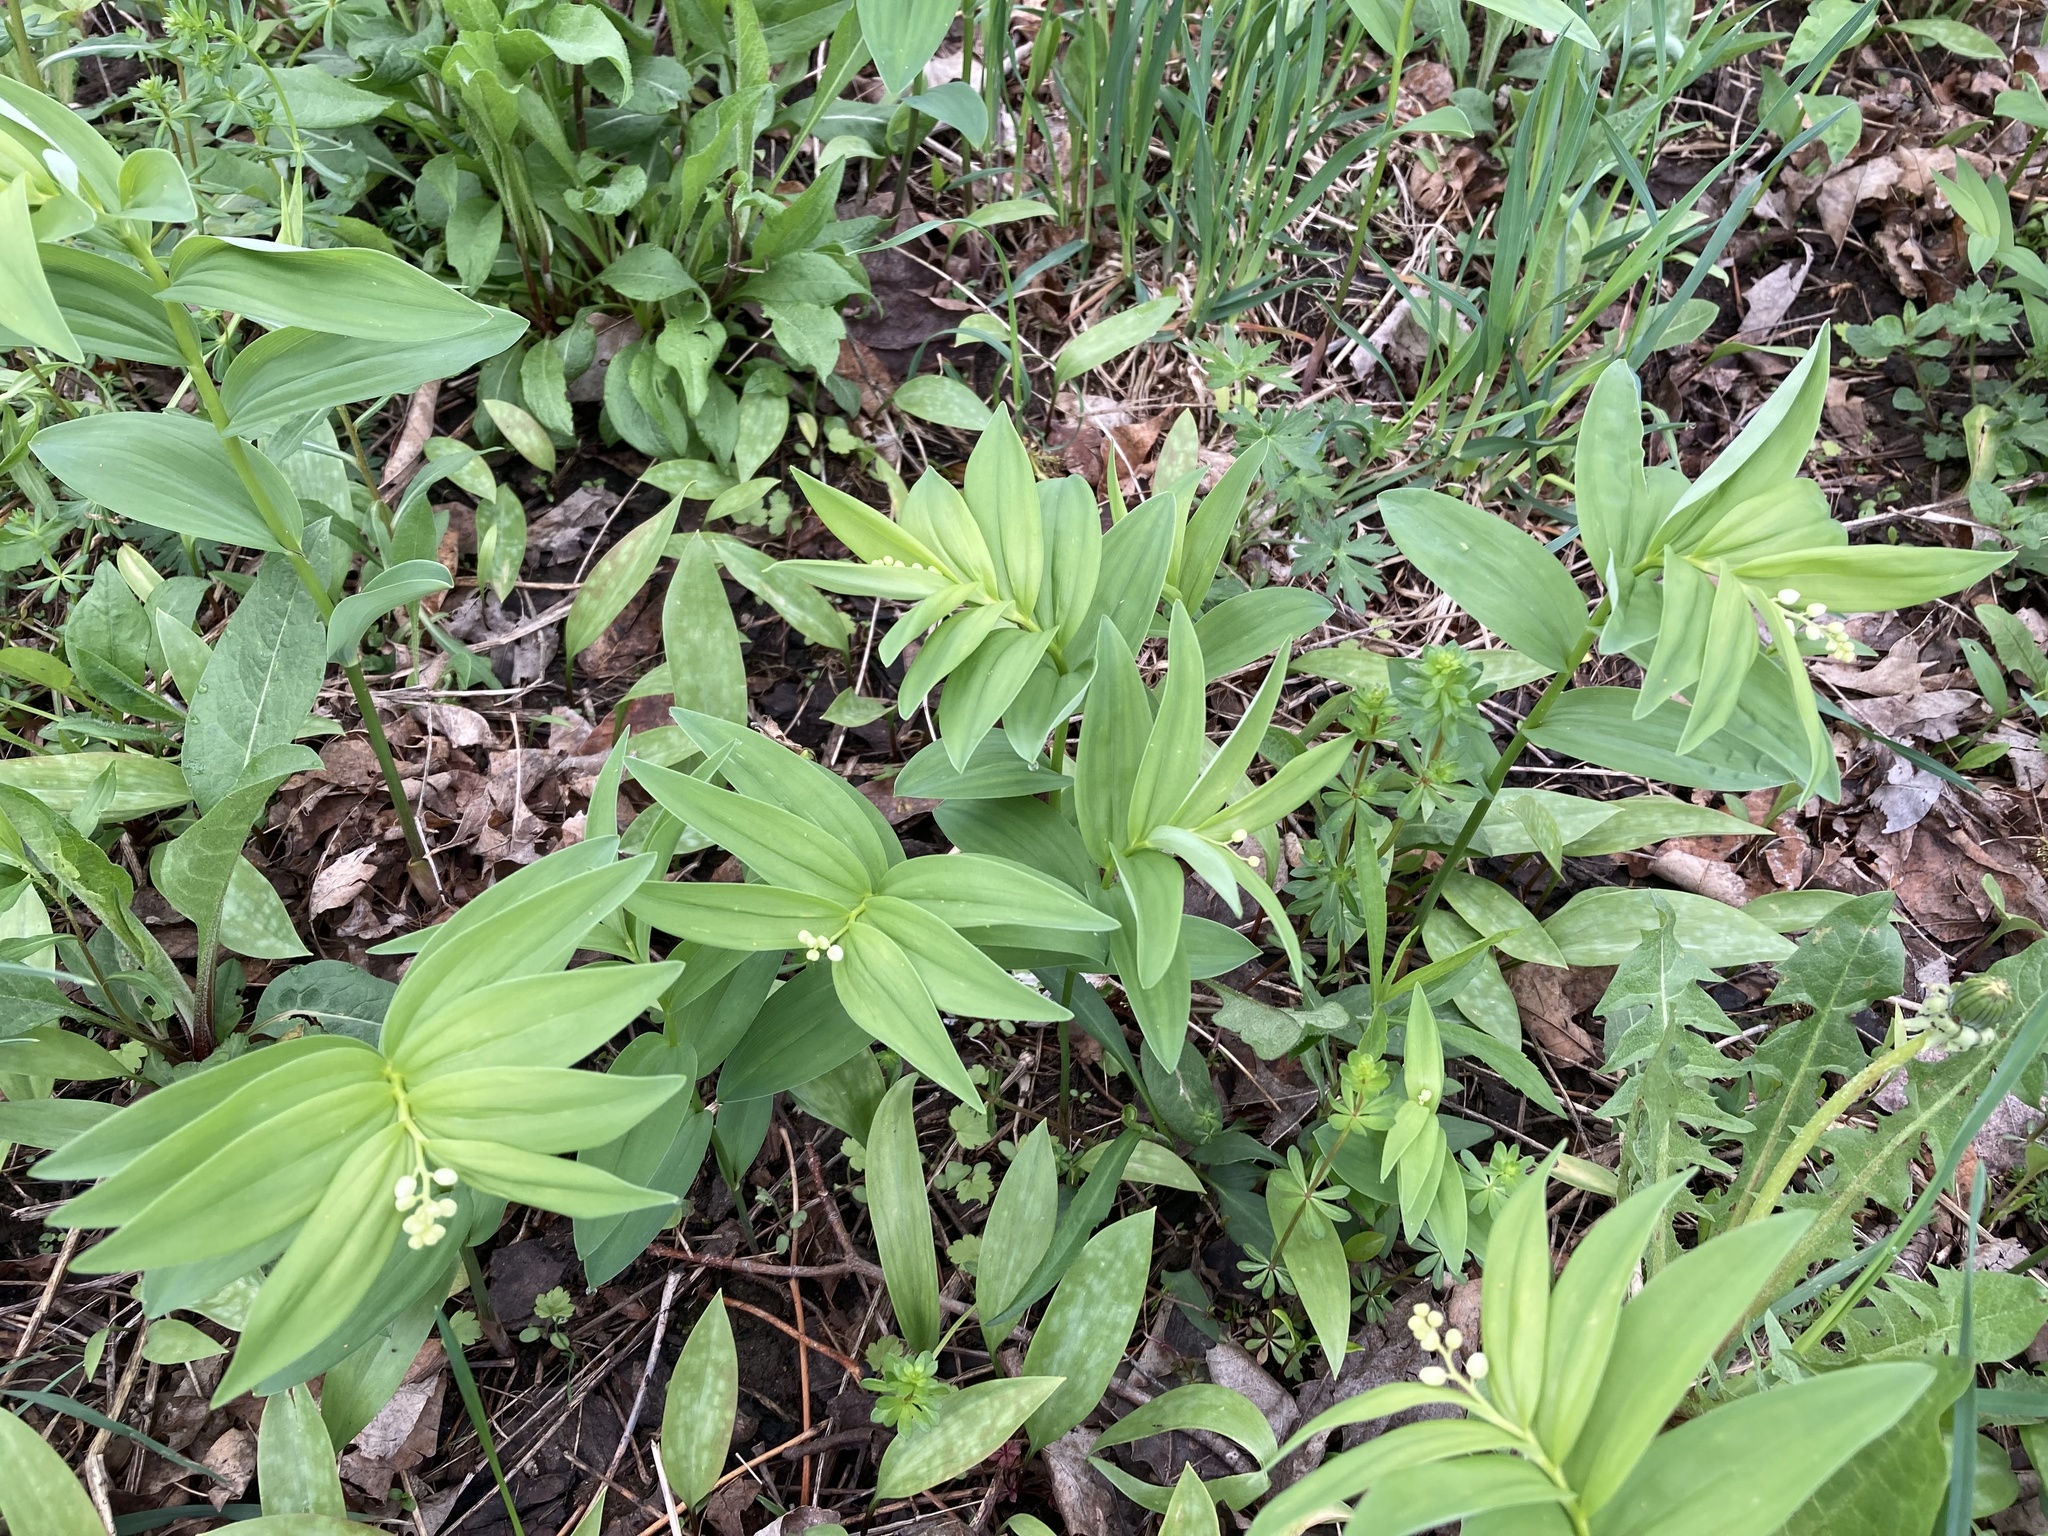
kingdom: Plantae
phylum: Tracheophyta
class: Liliopsida
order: Asparagales
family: Asparagaceae
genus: Maianthemum
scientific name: Maianthemum stellatum
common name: Little false solomon's seal
